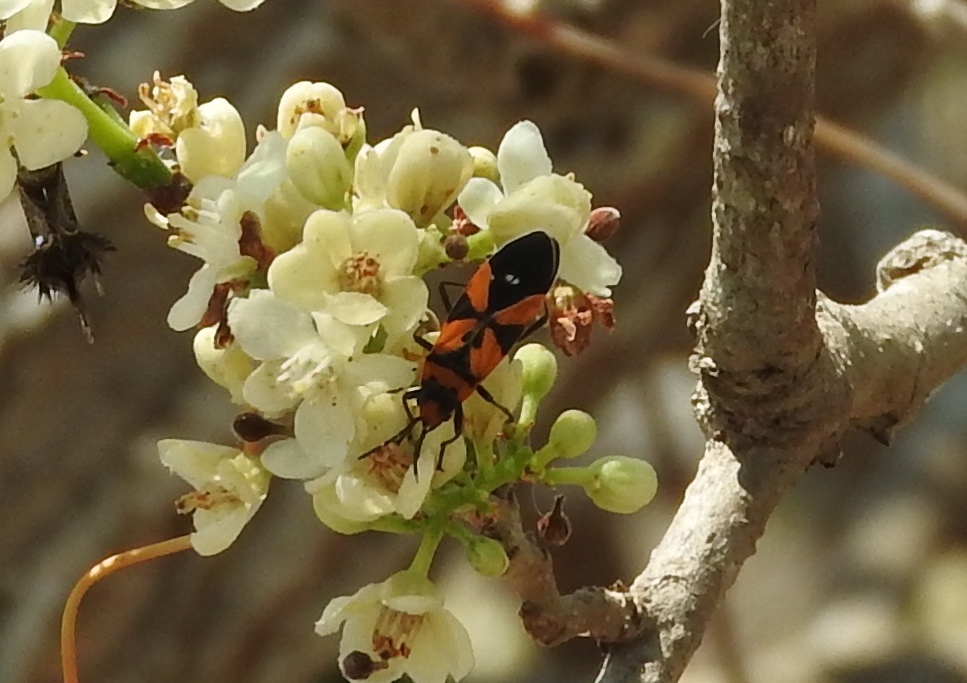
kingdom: Animalia
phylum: Arthropoda
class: Insecta
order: Hemiptera
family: Lygaeidae
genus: Lygaeus
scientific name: Lygaeus analis
